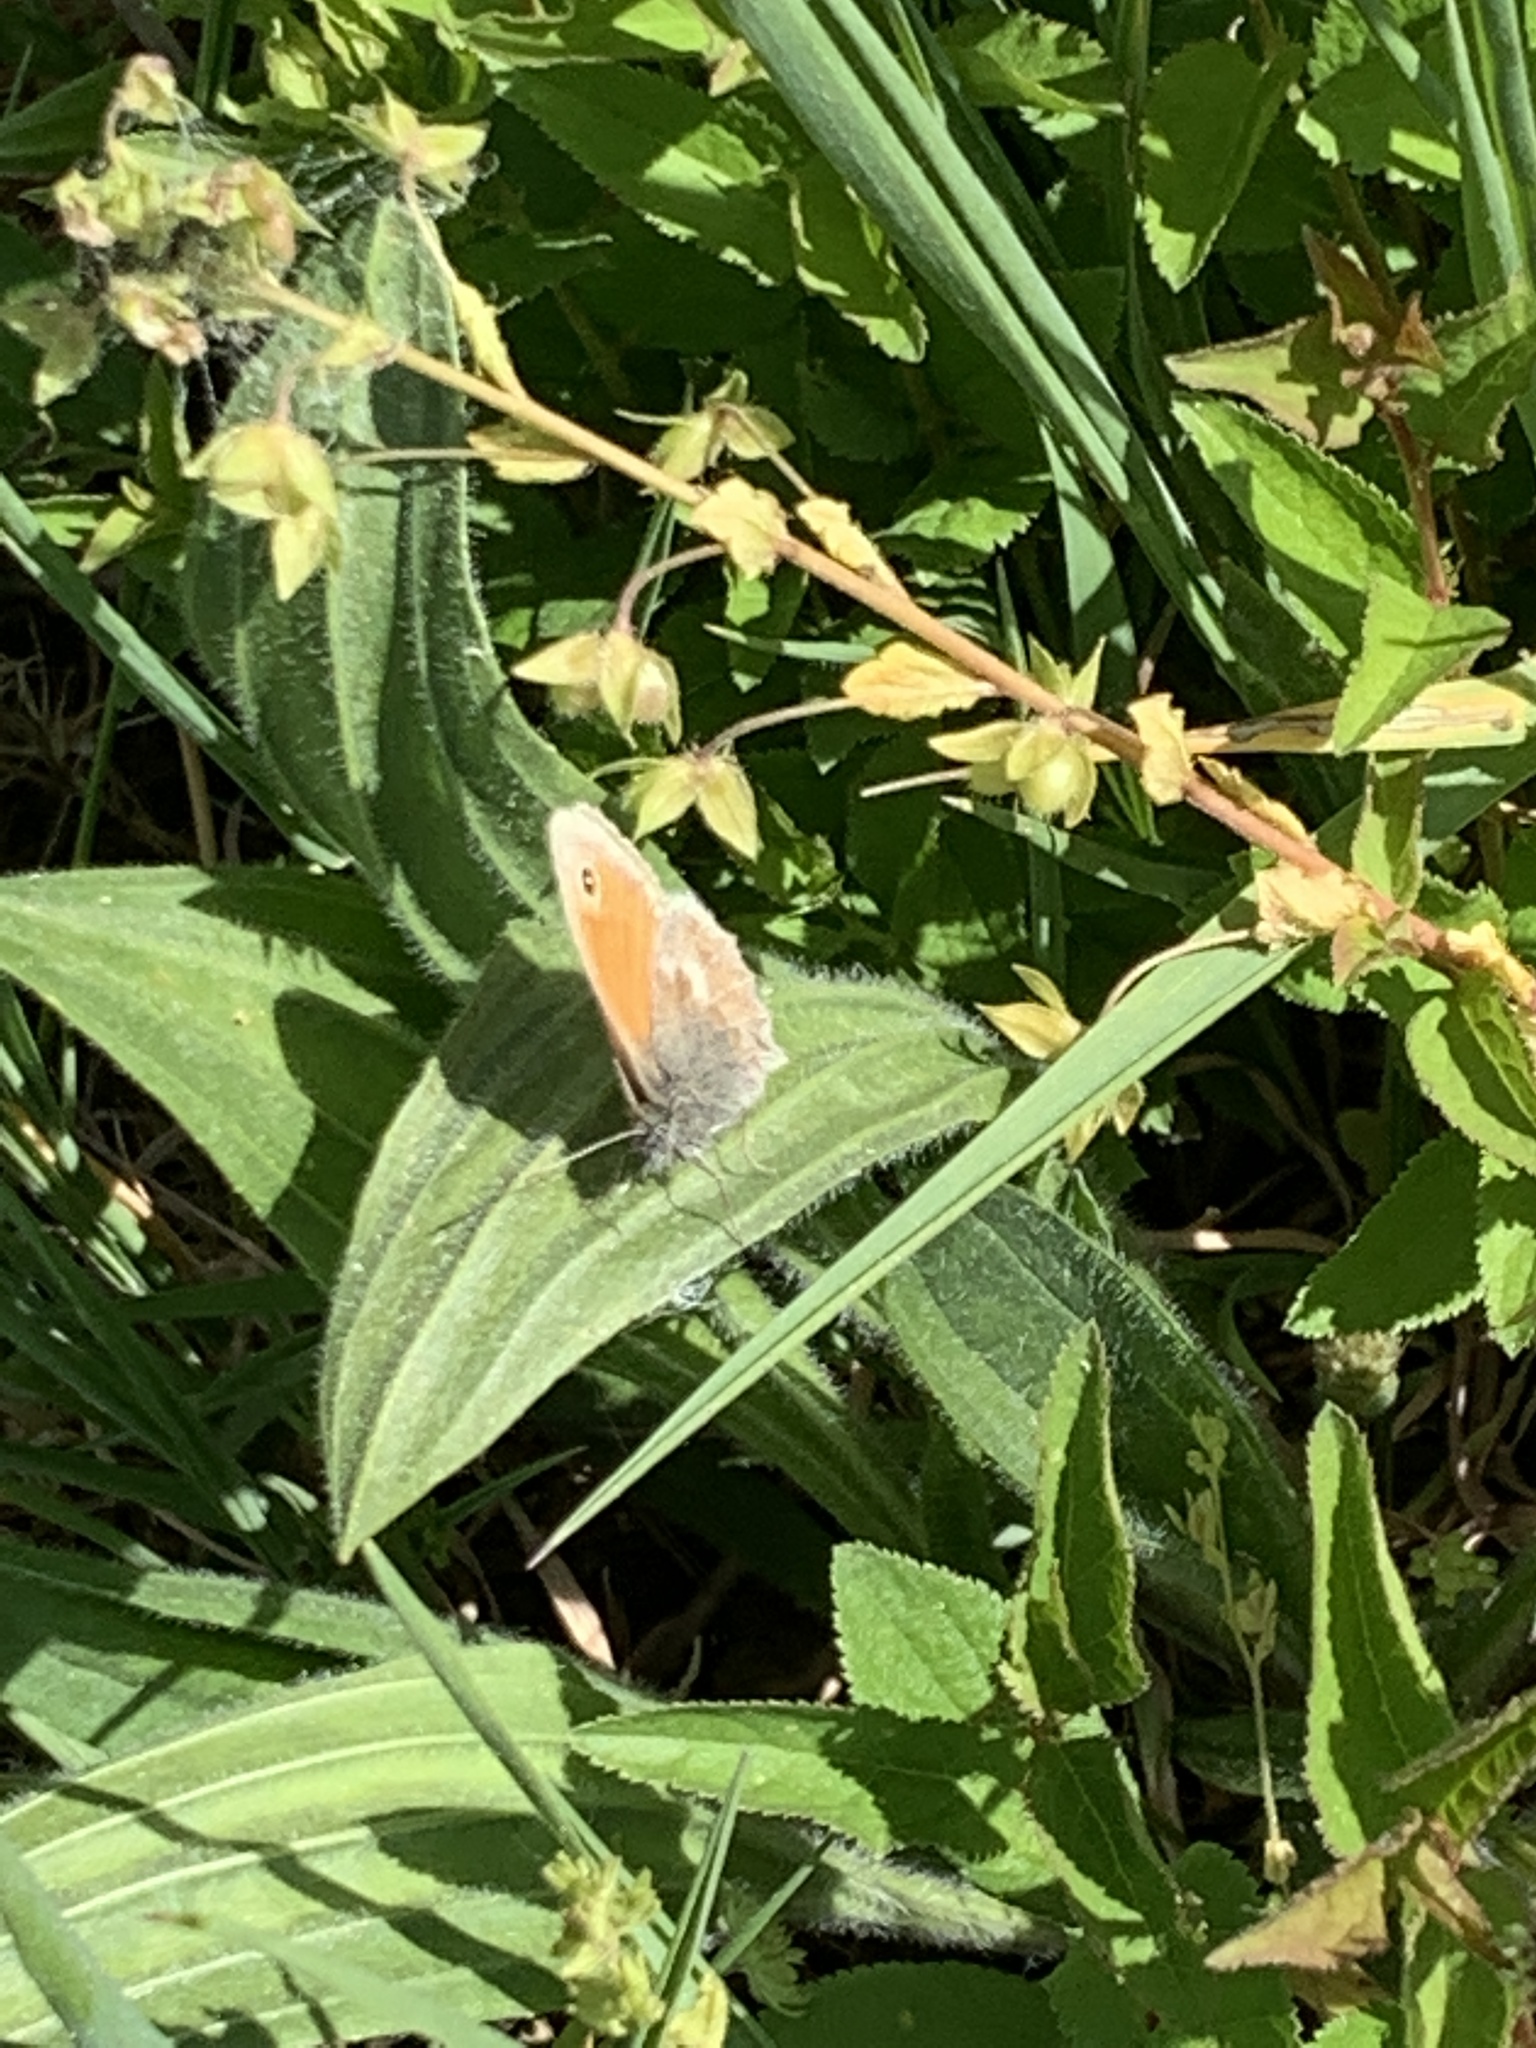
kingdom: Animalia
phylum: Arthropoda
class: Insecta
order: Lepidoptera
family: Nymphalidae
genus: Coenonympha
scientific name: Coenonympha pamphilus
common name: Small heath
